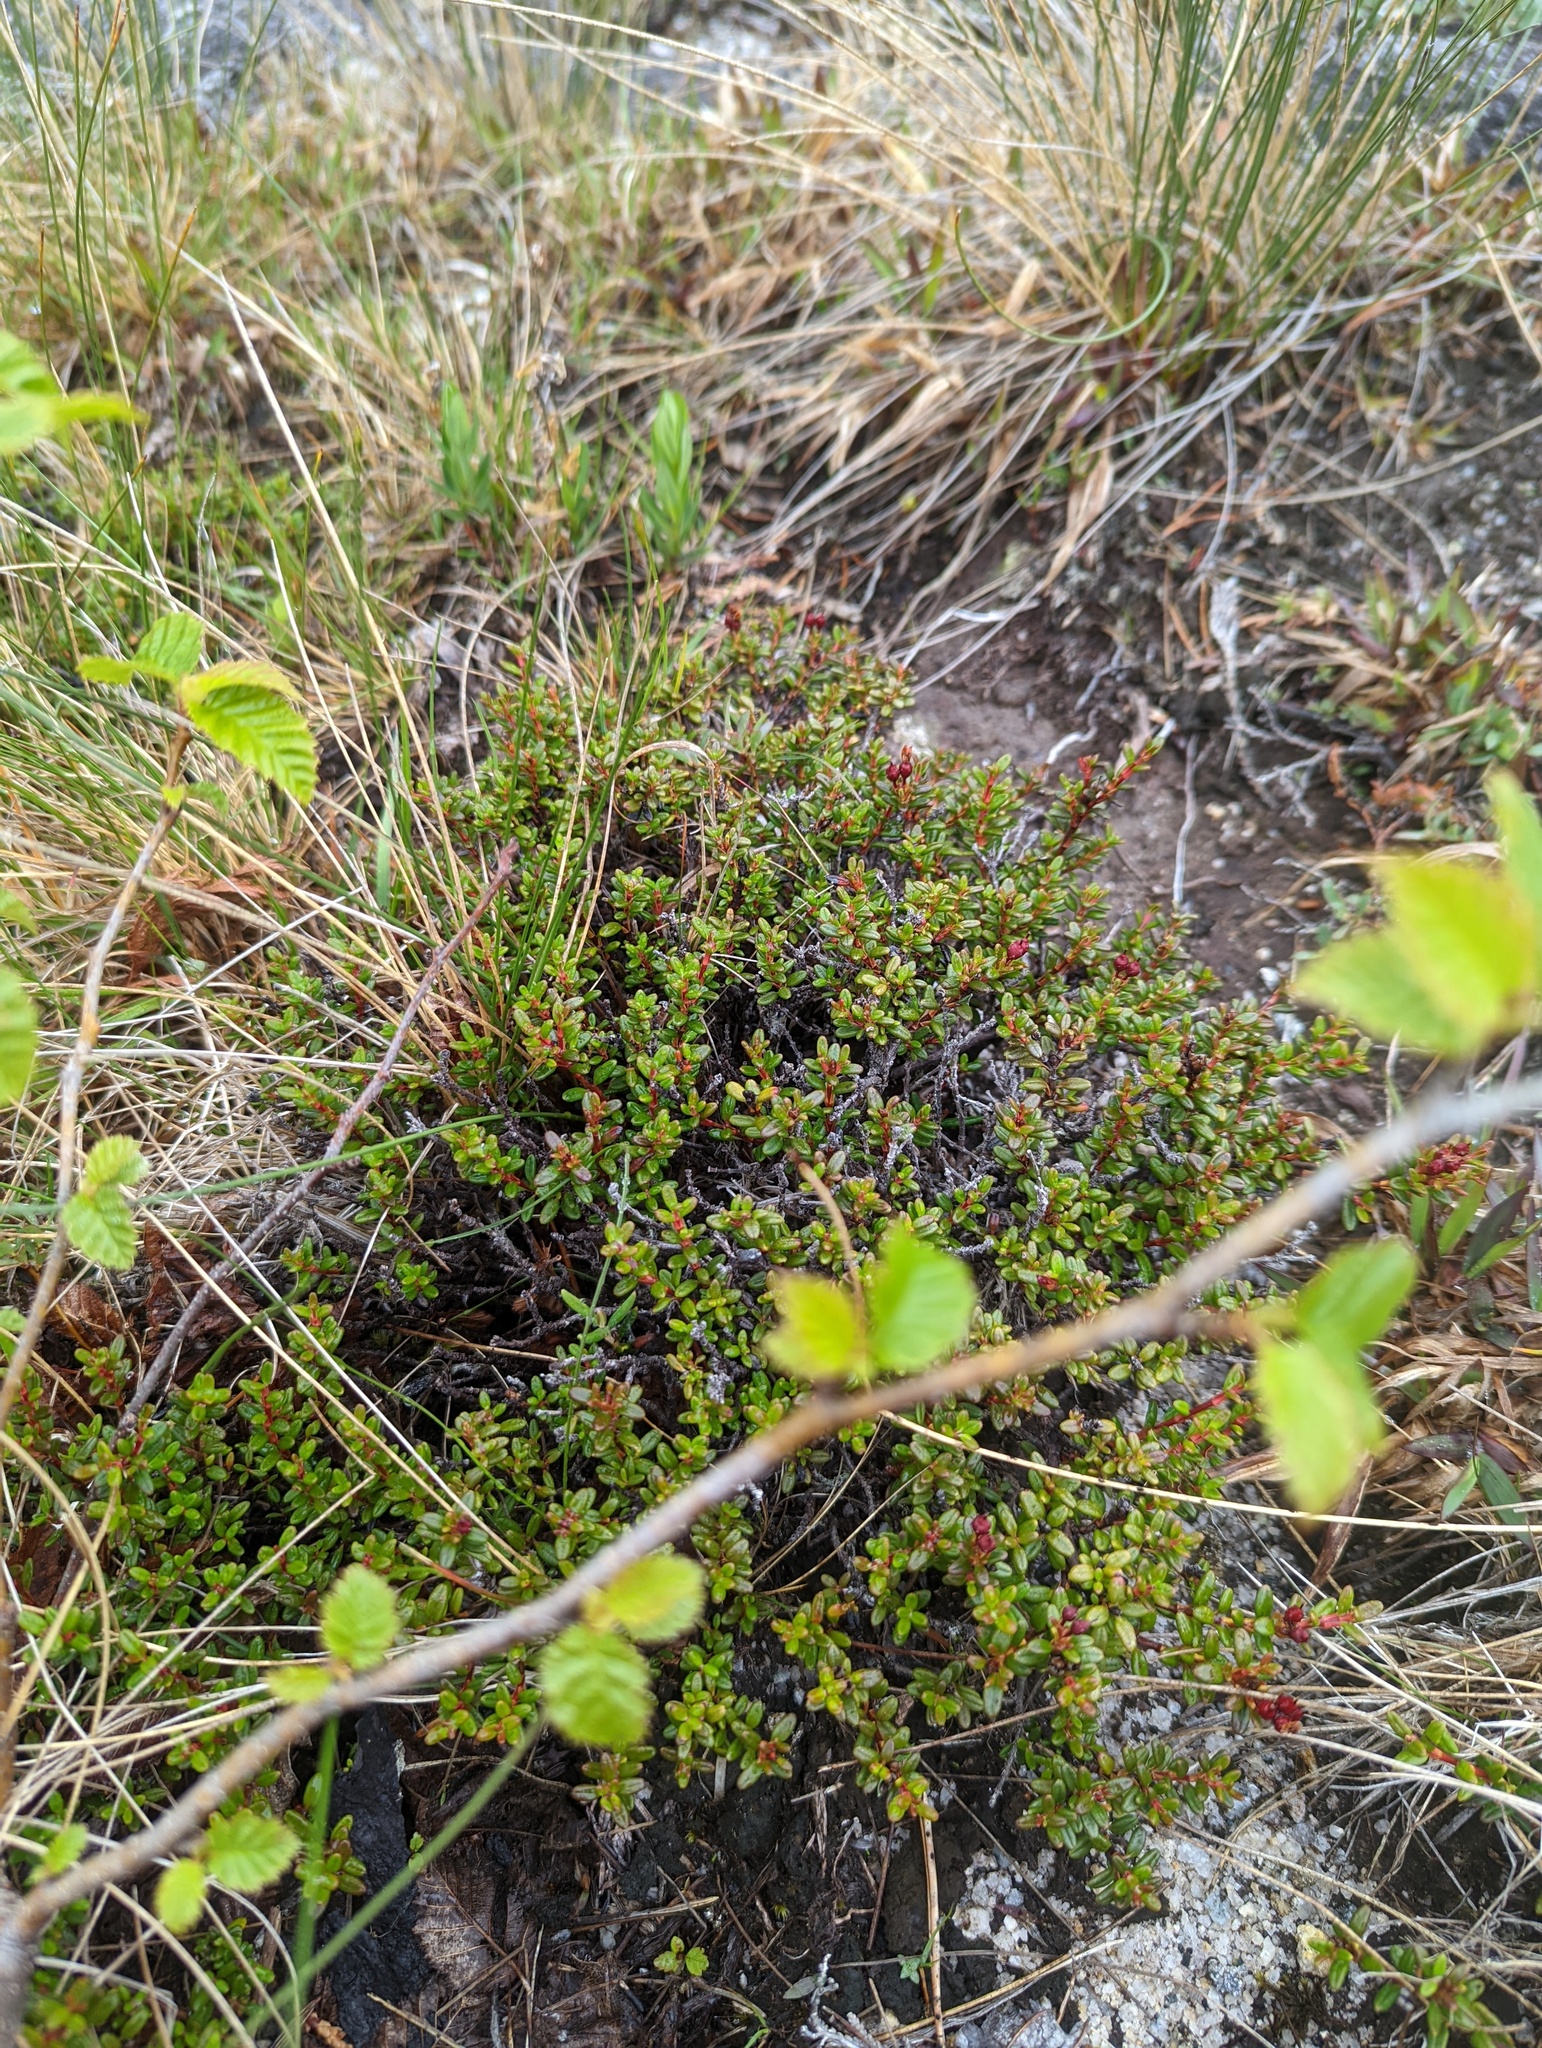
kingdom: Plantae
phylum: Tracheophyta
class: Magnoliopsida
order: Ericales
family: Ericaceae
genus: Kalmia
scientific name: Kalmia procumbens
